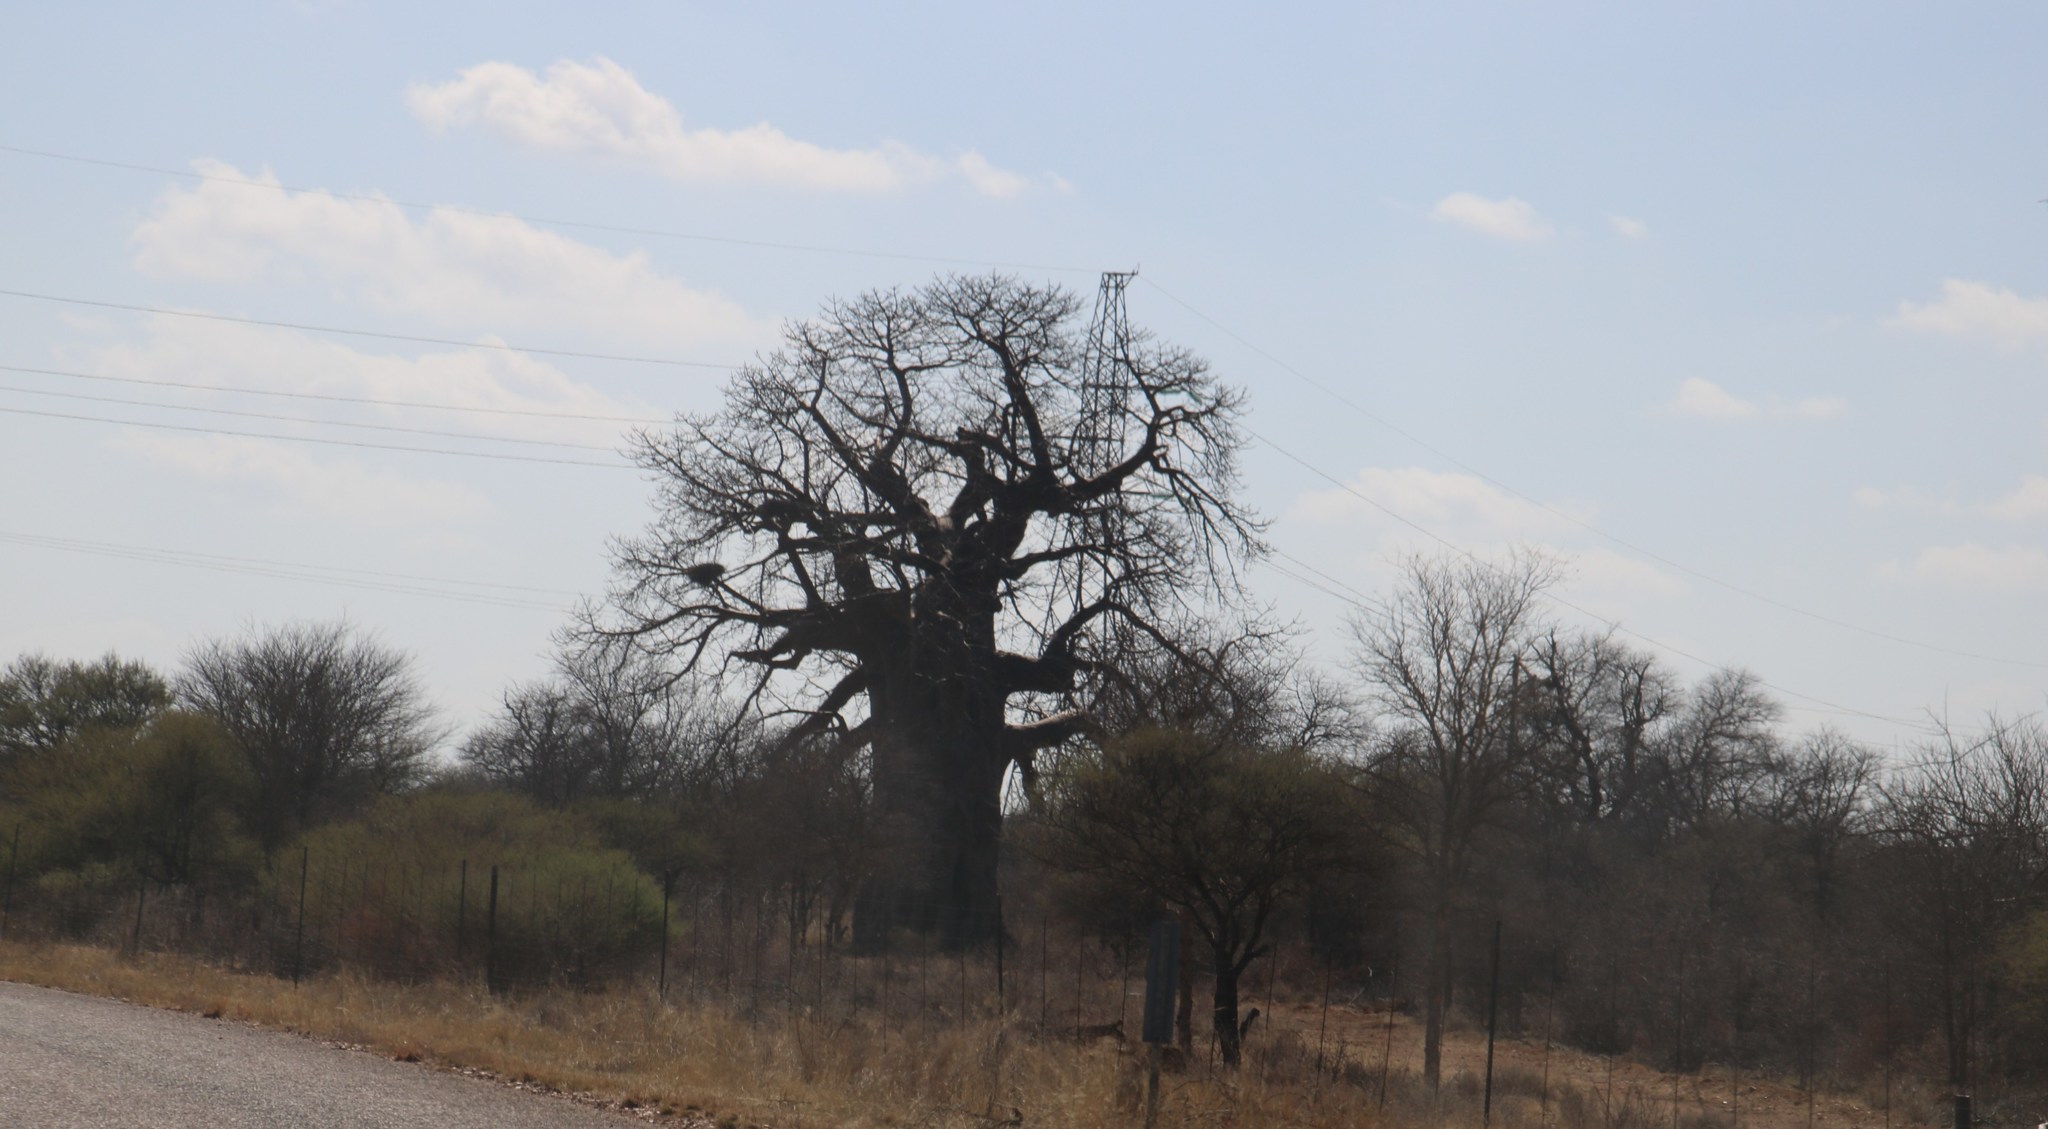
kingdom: Plantae
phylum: Tracheophyta
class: Magnoliopsida
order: Malvales
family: Malvaceae
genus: Adansonia
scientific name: Adansonia digitata
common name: Dead-rat-tree
